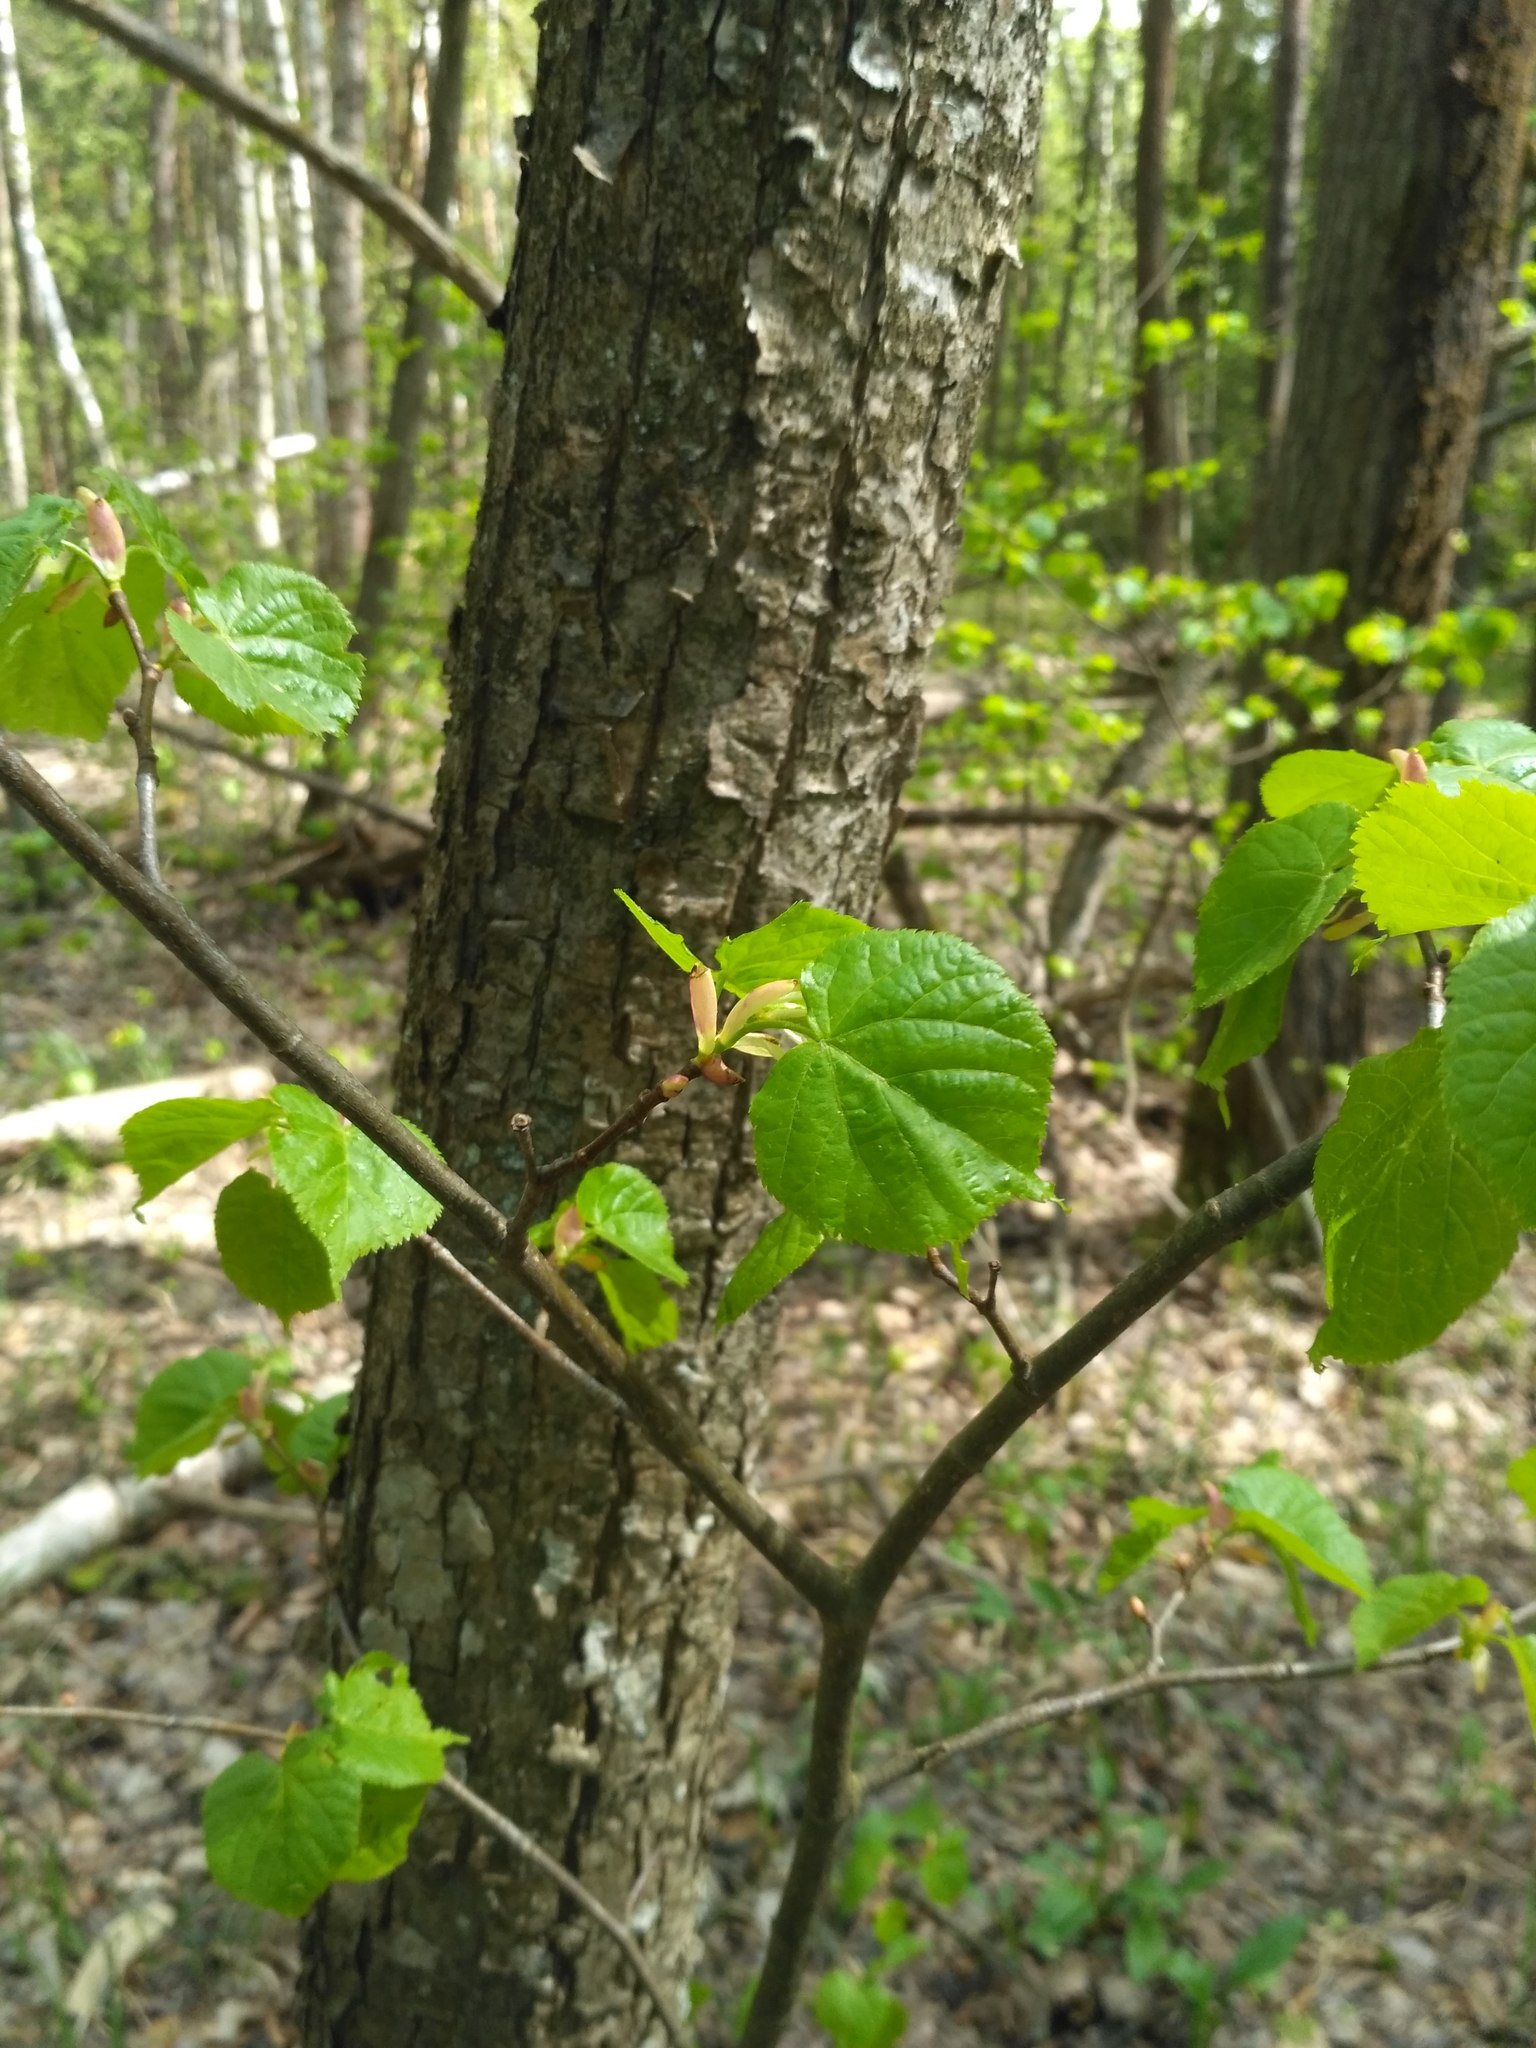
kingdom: Plantae
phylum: Tracheophyta
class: Magnoliopsida
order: Malvales
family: Malvaceae
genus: Tilia
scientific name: Tilia cordata
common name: Small-leaved lime
